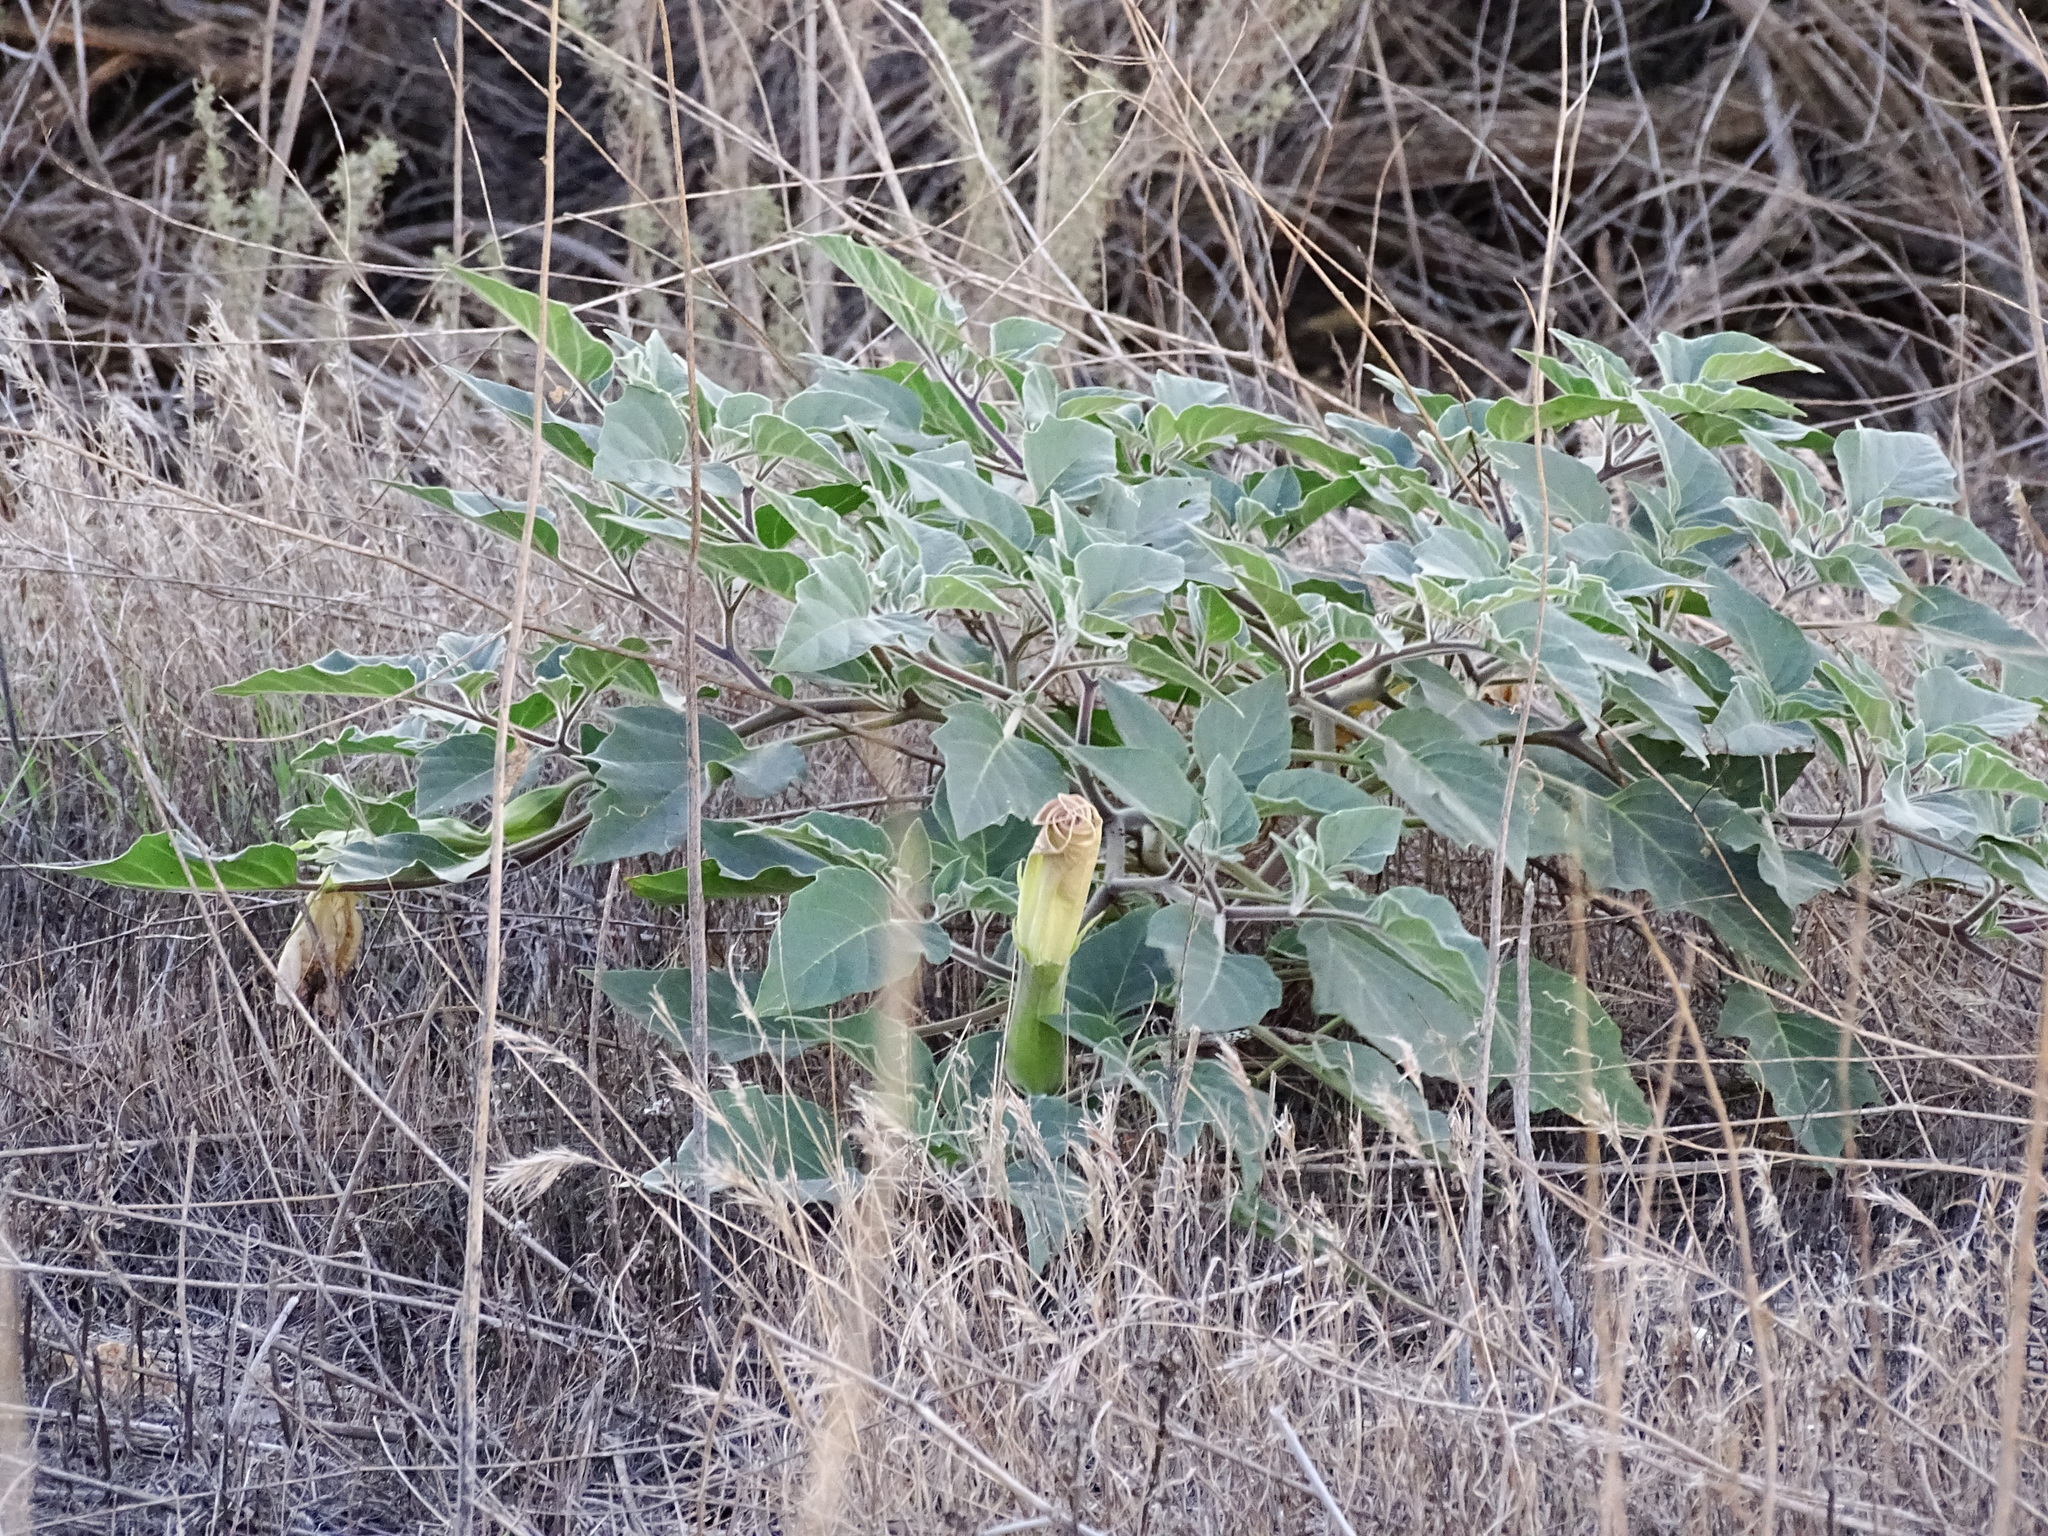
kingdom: Plantae
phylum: Tracheophyta
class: Magnoliopsida
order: Solanales
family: Solanaceae
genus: Datura
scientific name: Datura wrightii
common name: Sacred thorn-apple
